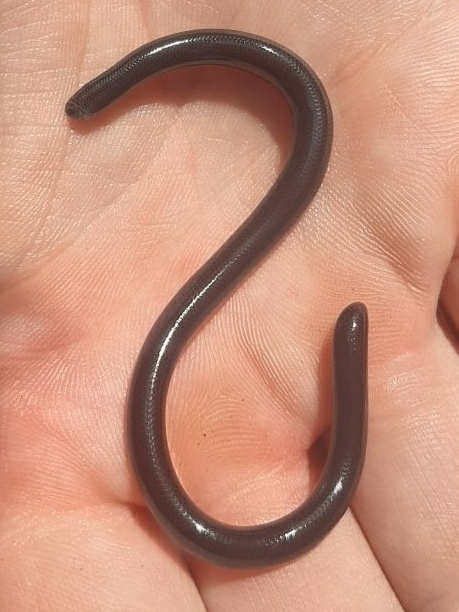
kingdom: Animalia
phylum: Chordata
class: Squamata
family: Typhlopidae
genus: Afrotyphlops
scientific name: Afrotyphlops fornasinii
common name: Fornasini's blind snake
